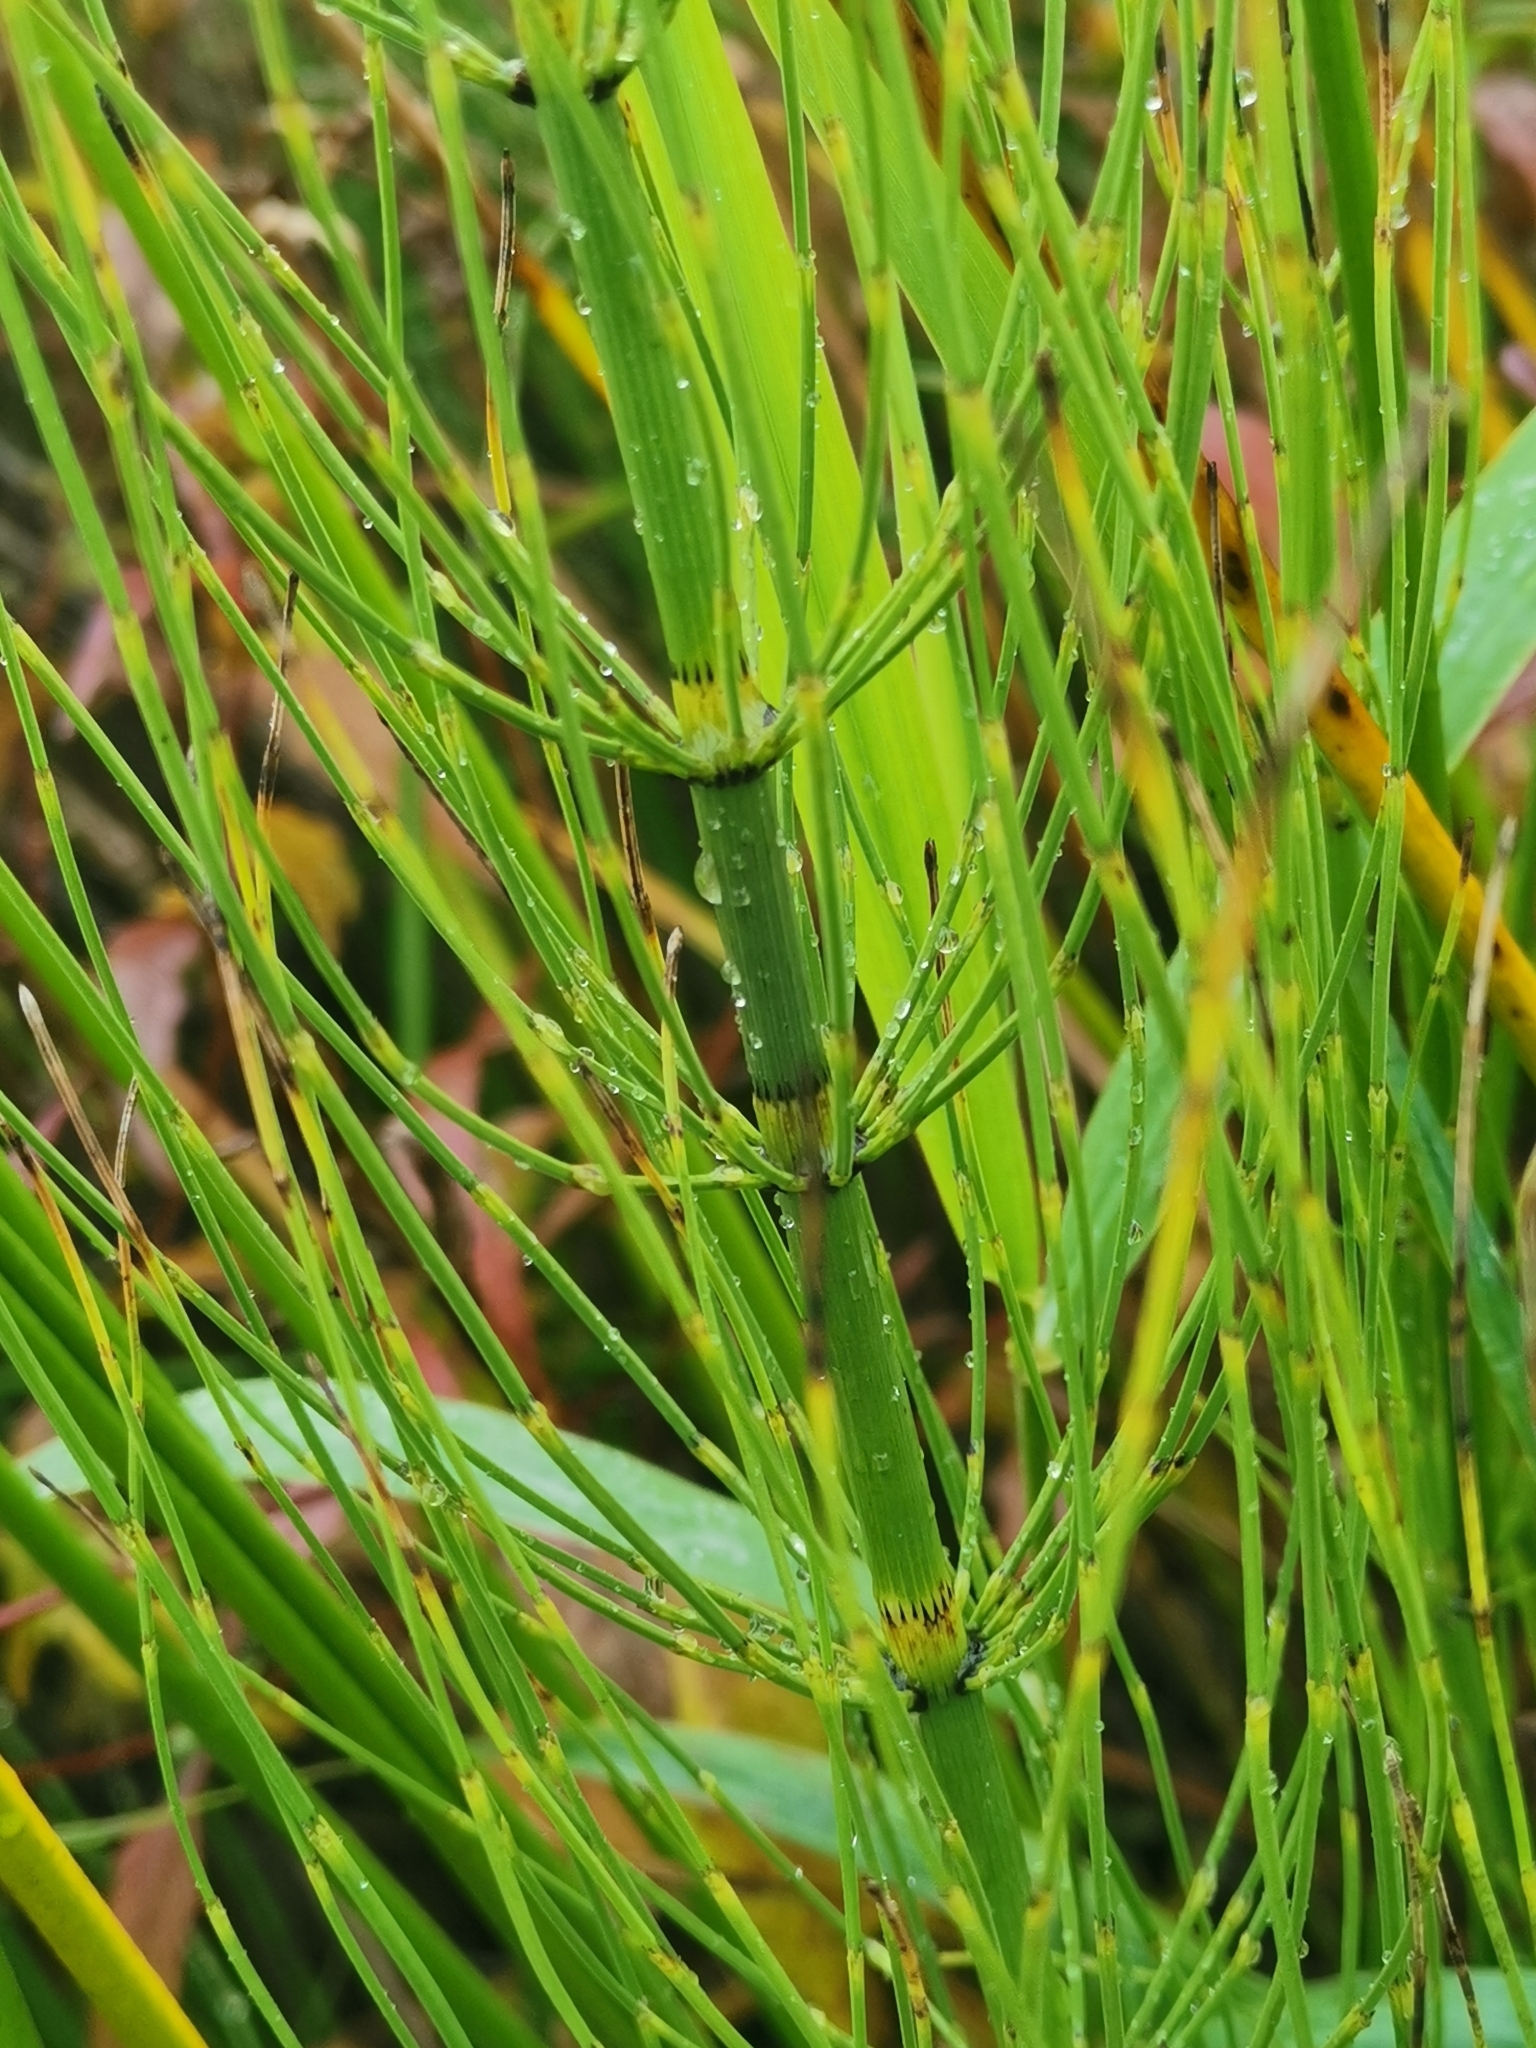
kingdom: Plantae
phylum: Tracheophyta
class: Polypodiopsida
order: Equisetales
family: Equisetaceae
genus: Equisetum
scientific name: Equisetum fluviatile
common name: Water horsetail
